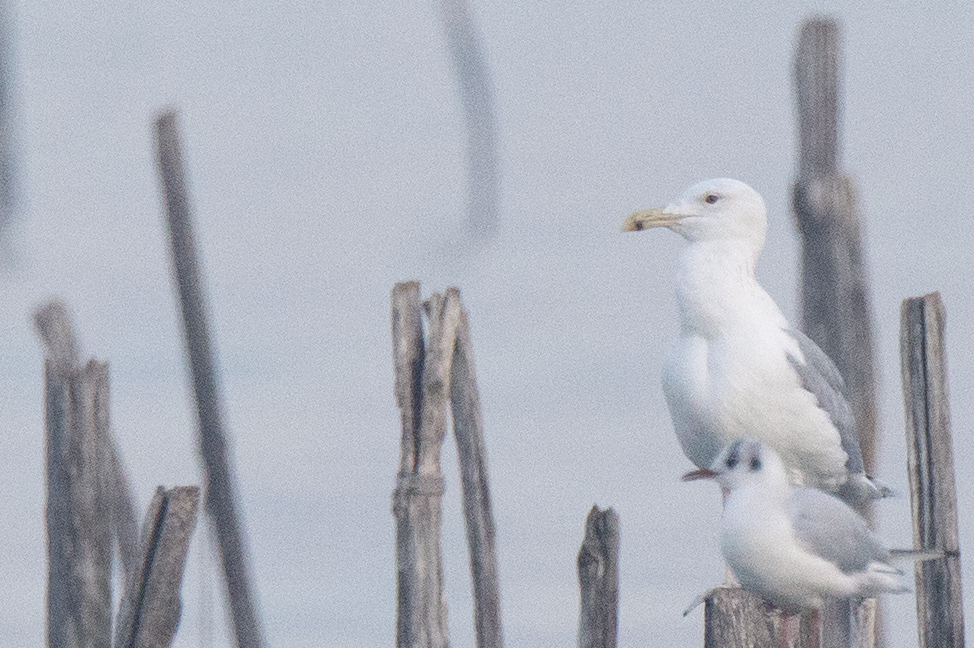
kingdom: Animalia
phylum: Chordata
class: Aves
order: Charadriiformes
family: Laridae
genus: Larus
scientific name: Larus cachinnans
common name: Caspian gull
